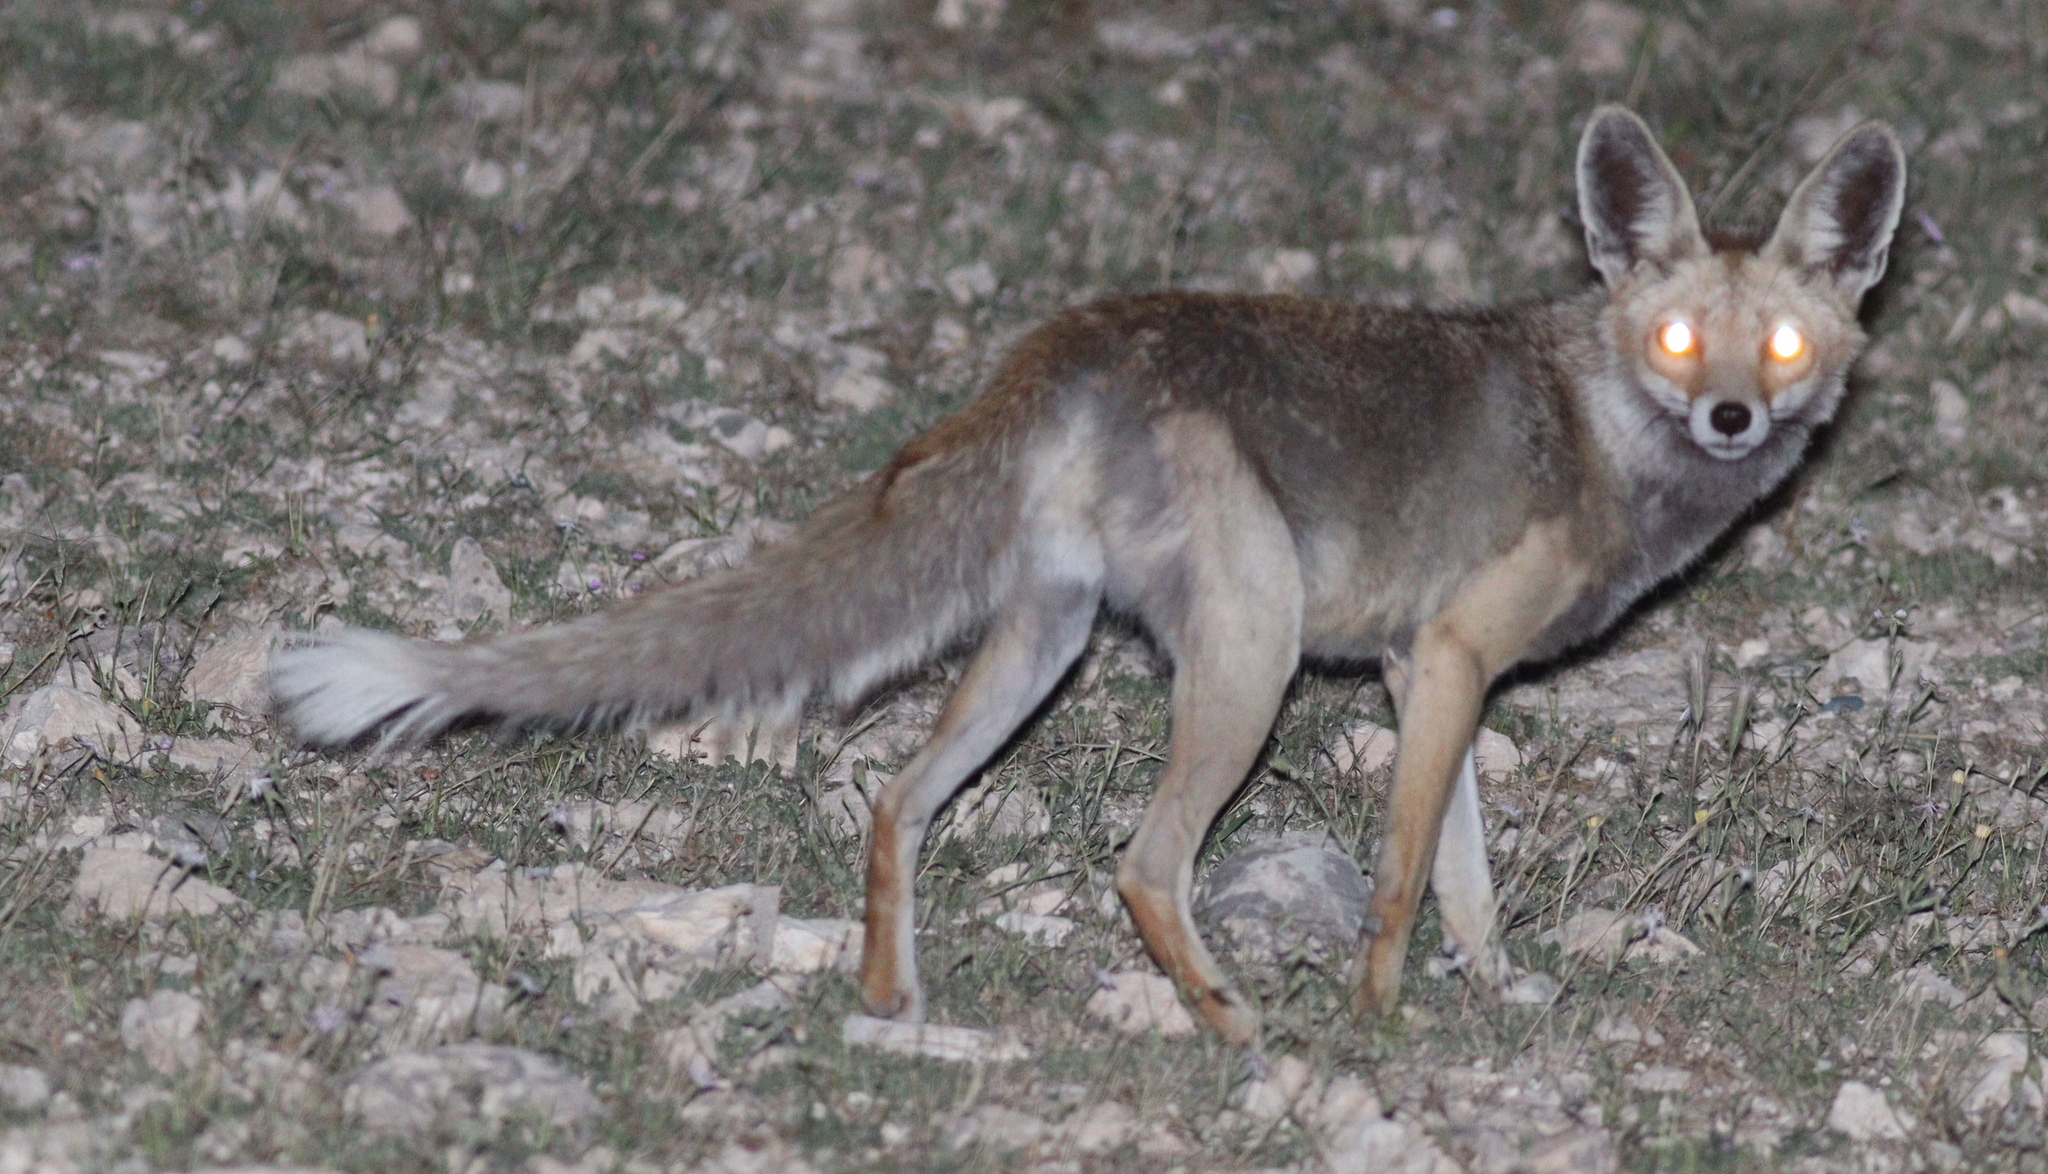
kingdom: Animalia
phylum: Chordata
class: Mammalia
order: Carnivora
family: Canidae
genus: Vulpes
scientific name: Vulpes vulpes
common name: Red fox
